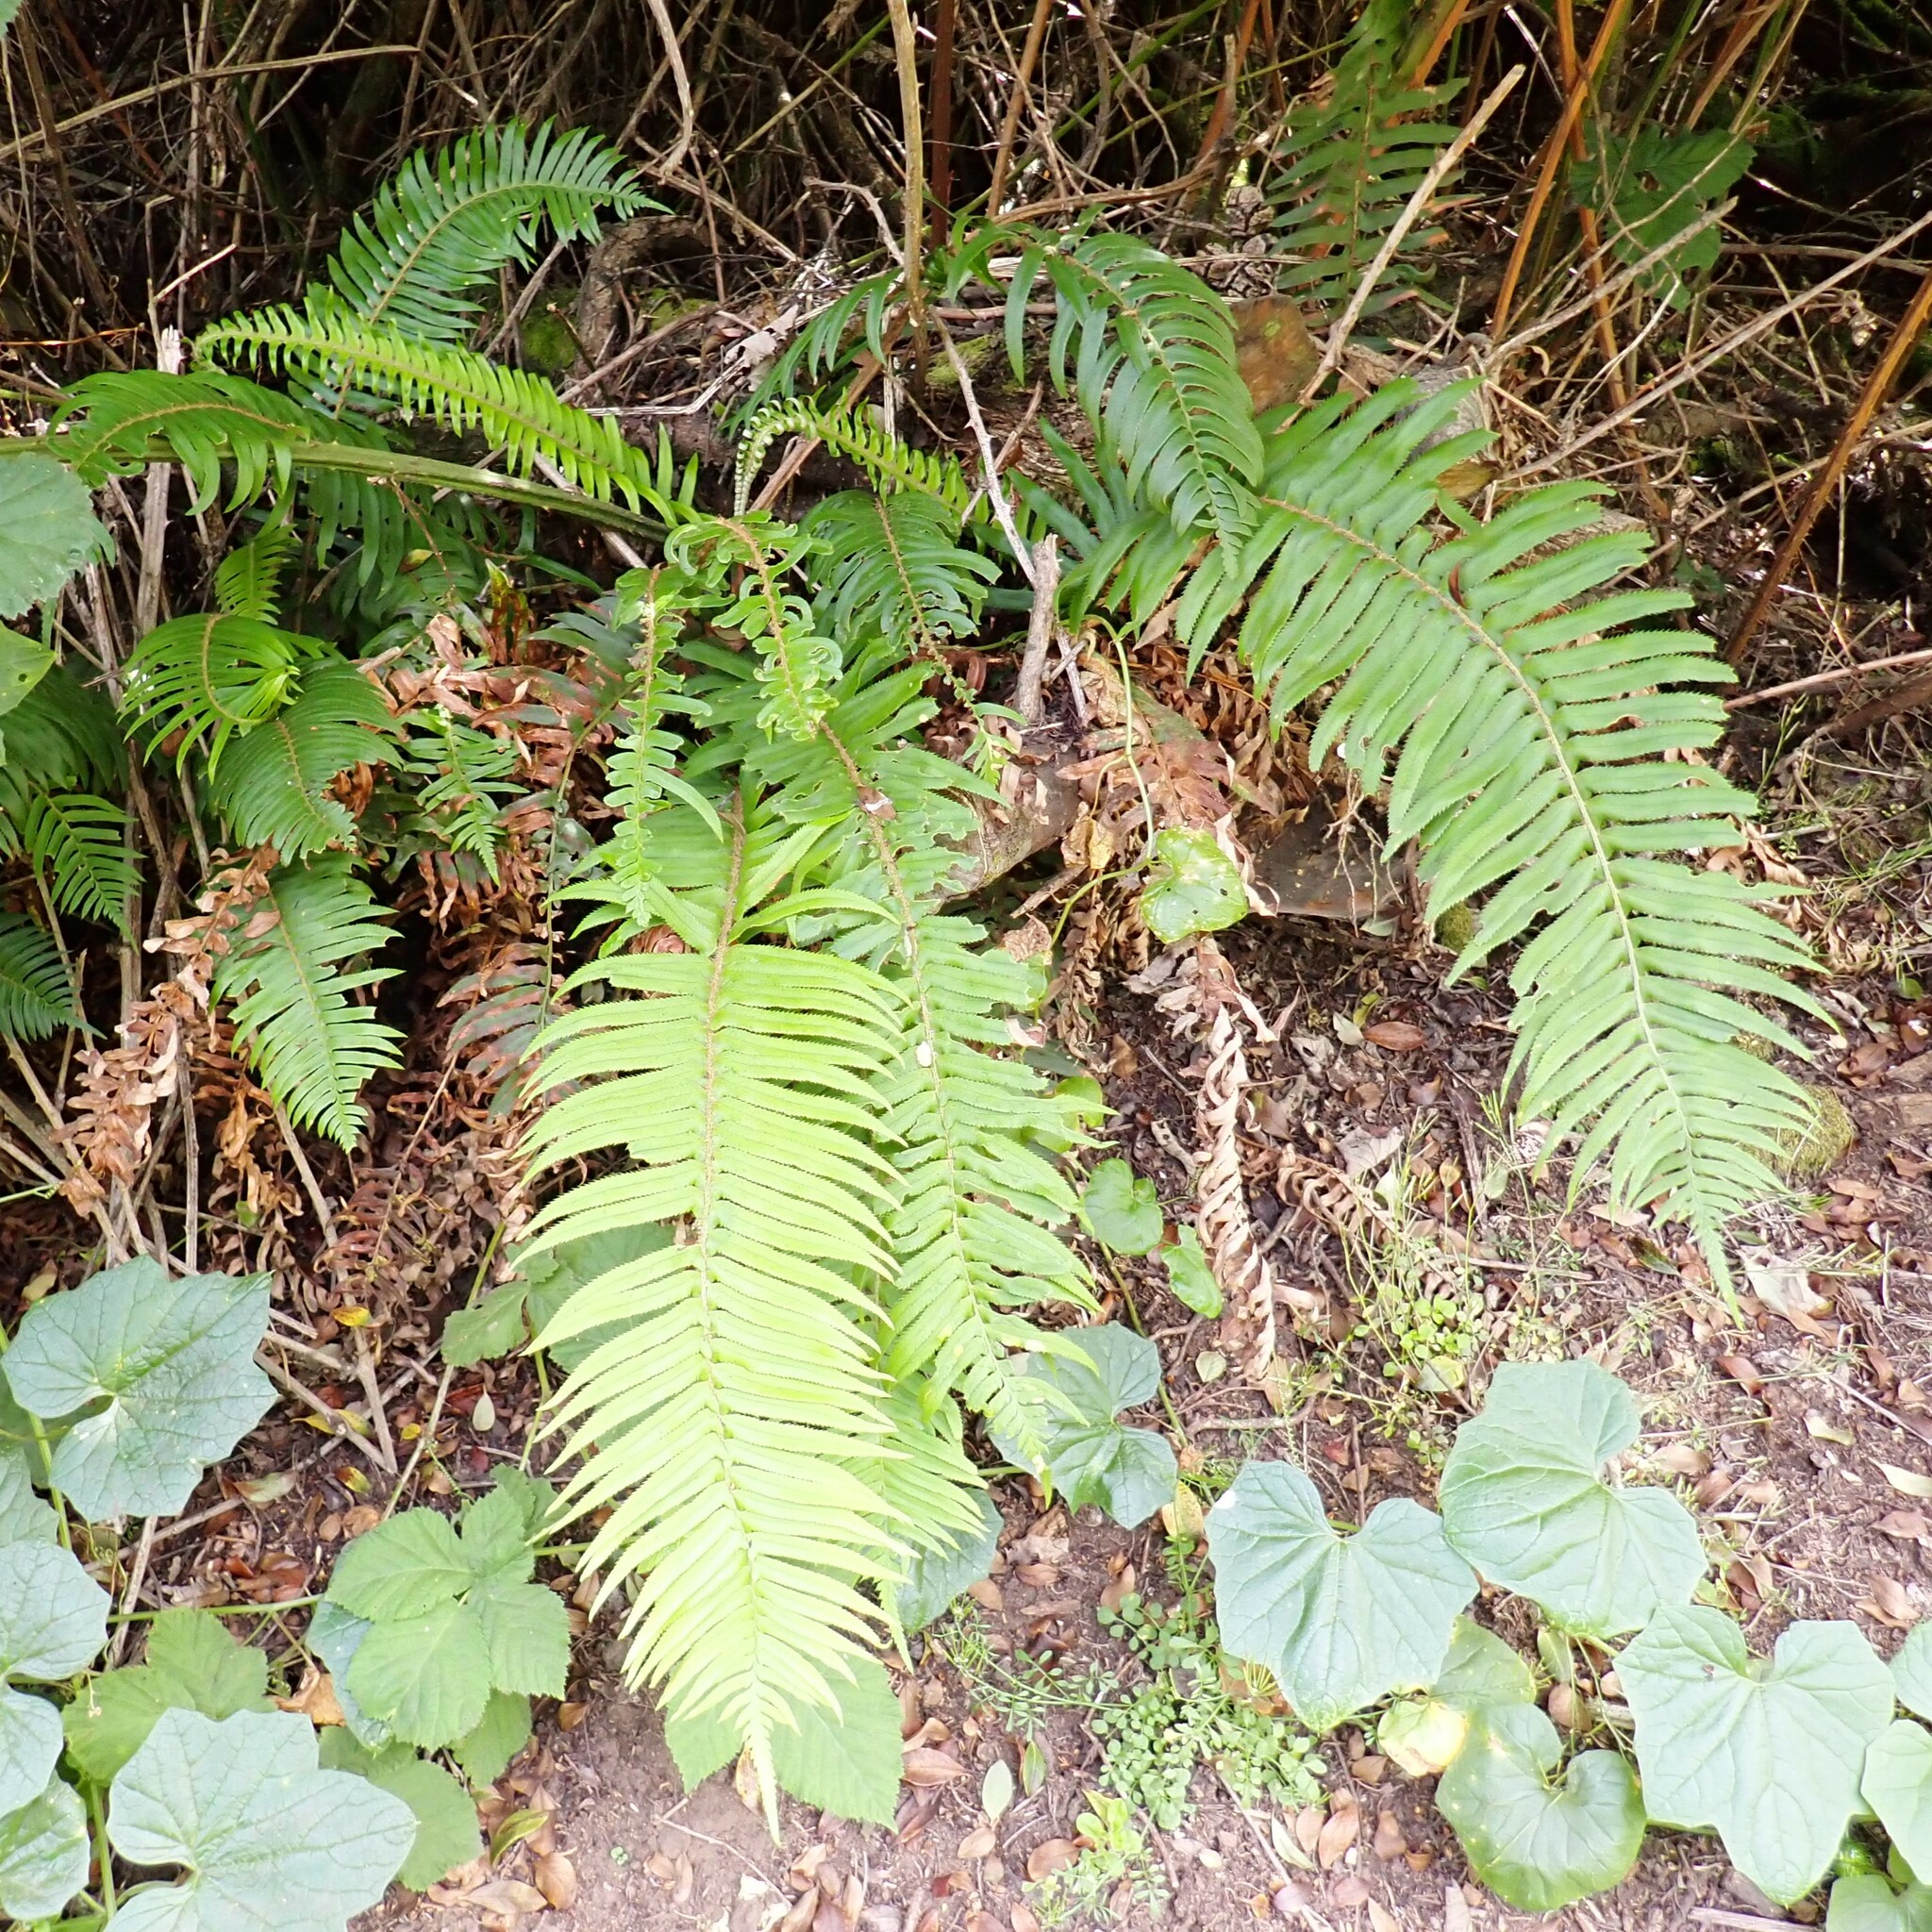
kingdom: Plantae
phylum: Tracheophyta
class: Polypodiopsida
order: Polypodiales
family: Dryopteridaceae
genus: Polystichum
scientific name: Polystichum munitum
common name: Western sword-fern
